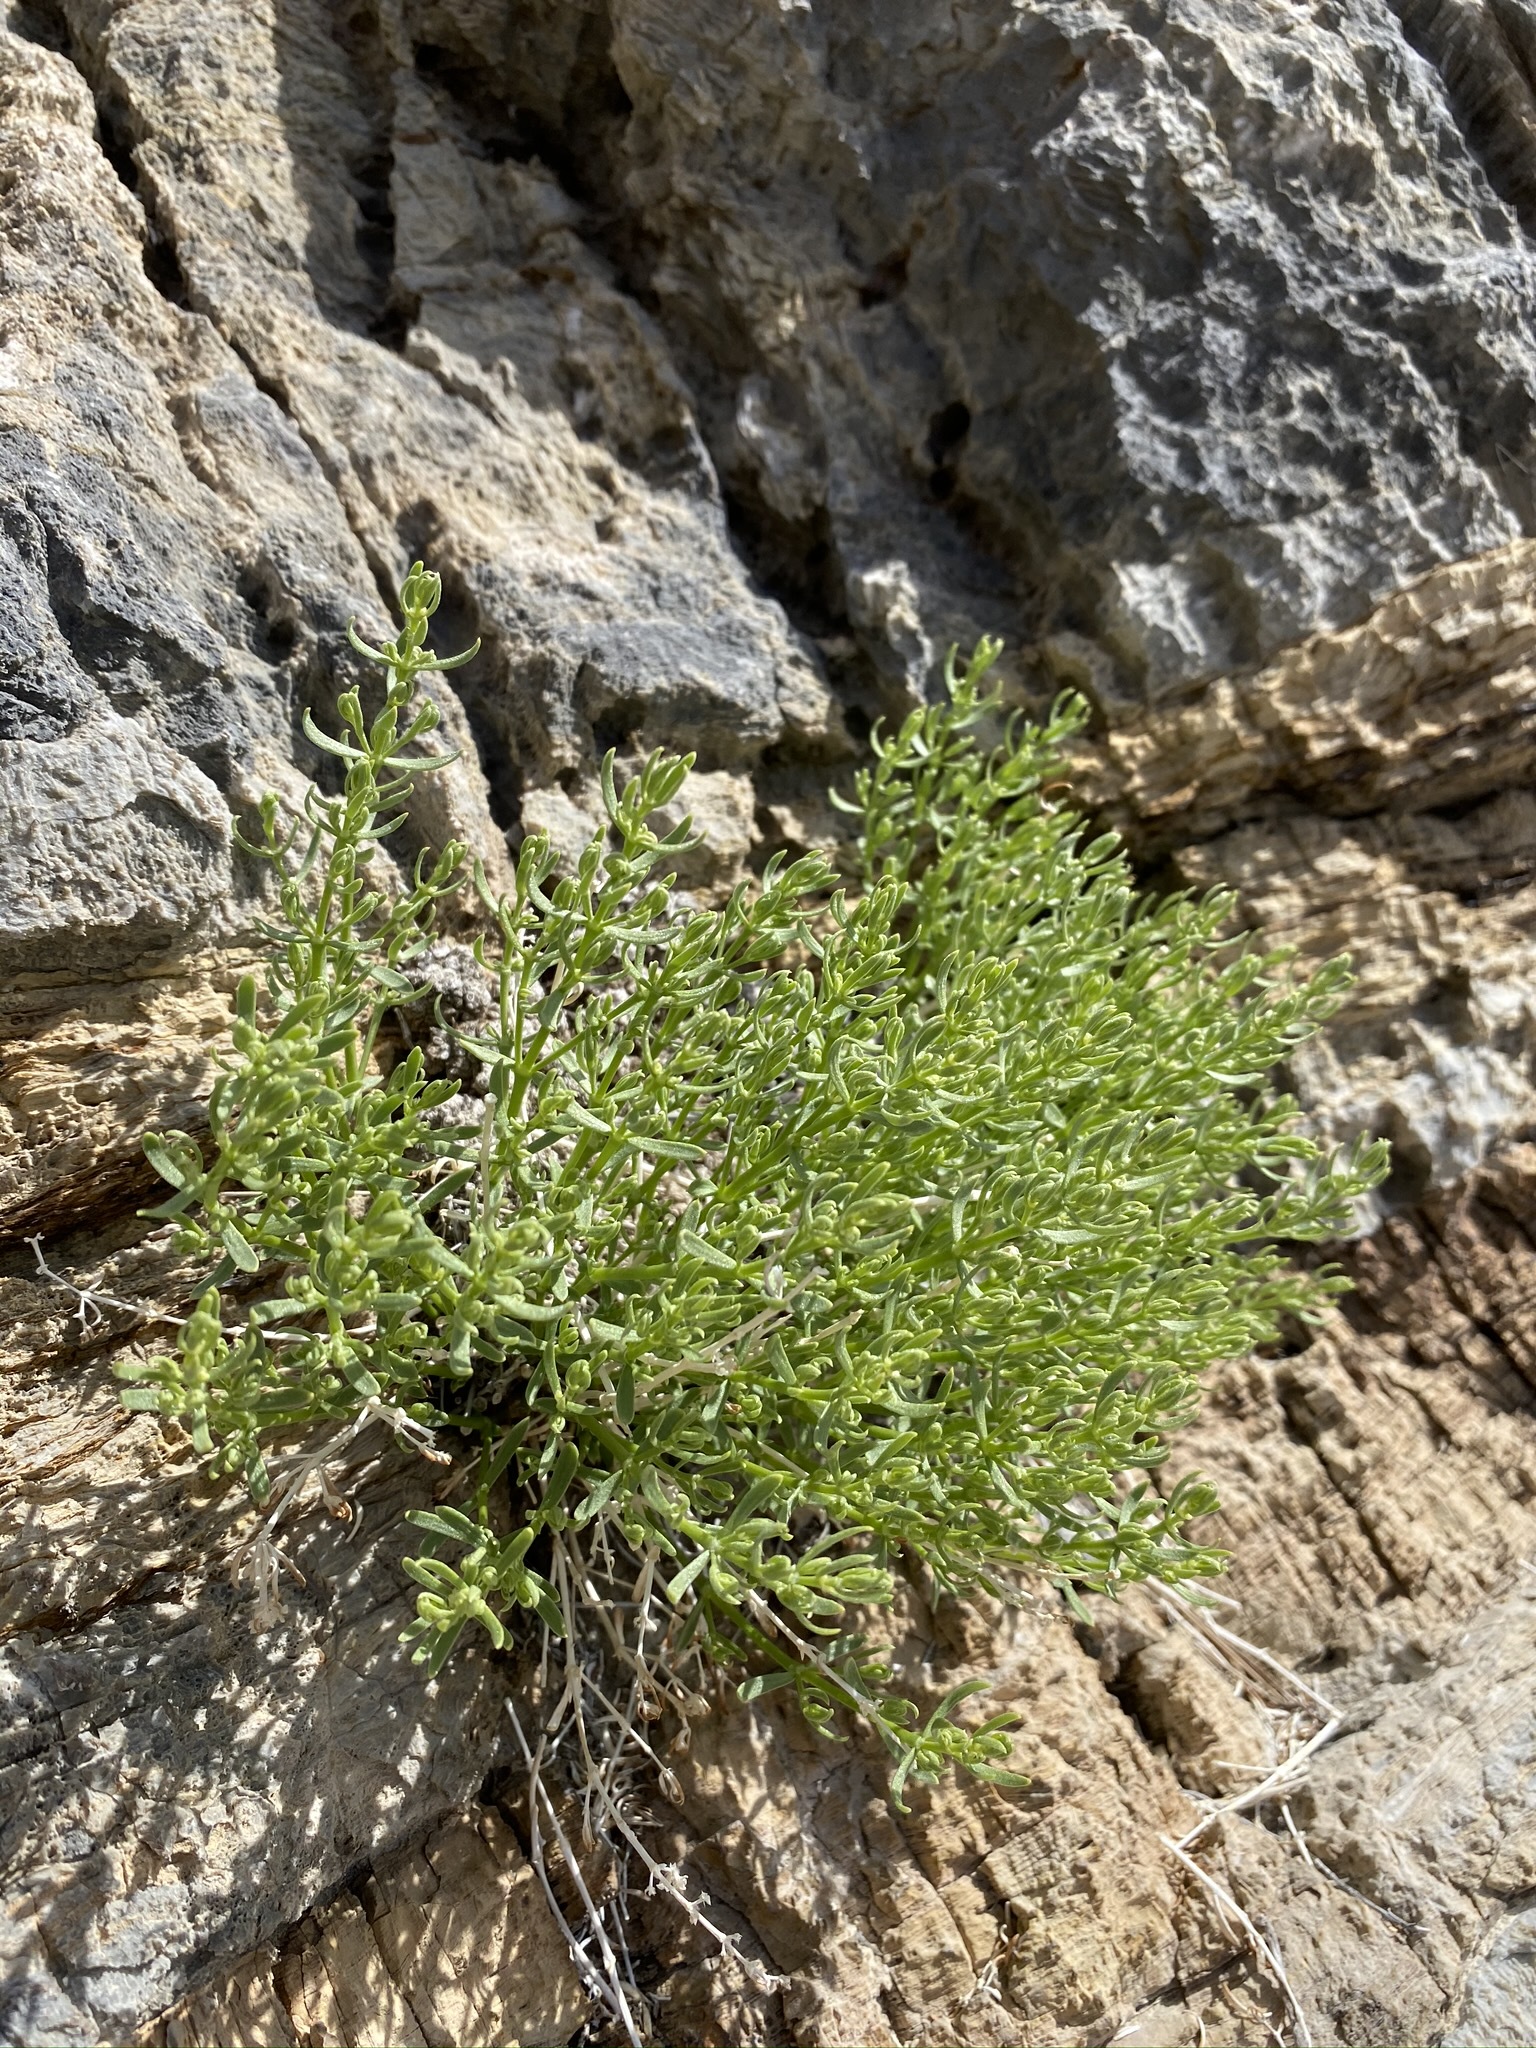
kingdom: Plantae
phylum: Tracheophyta
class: Magnoliopsida
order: Caryophyllales
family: Caryophyllaceae
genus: Scopulophila
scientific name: Scopulophila rixfordii
